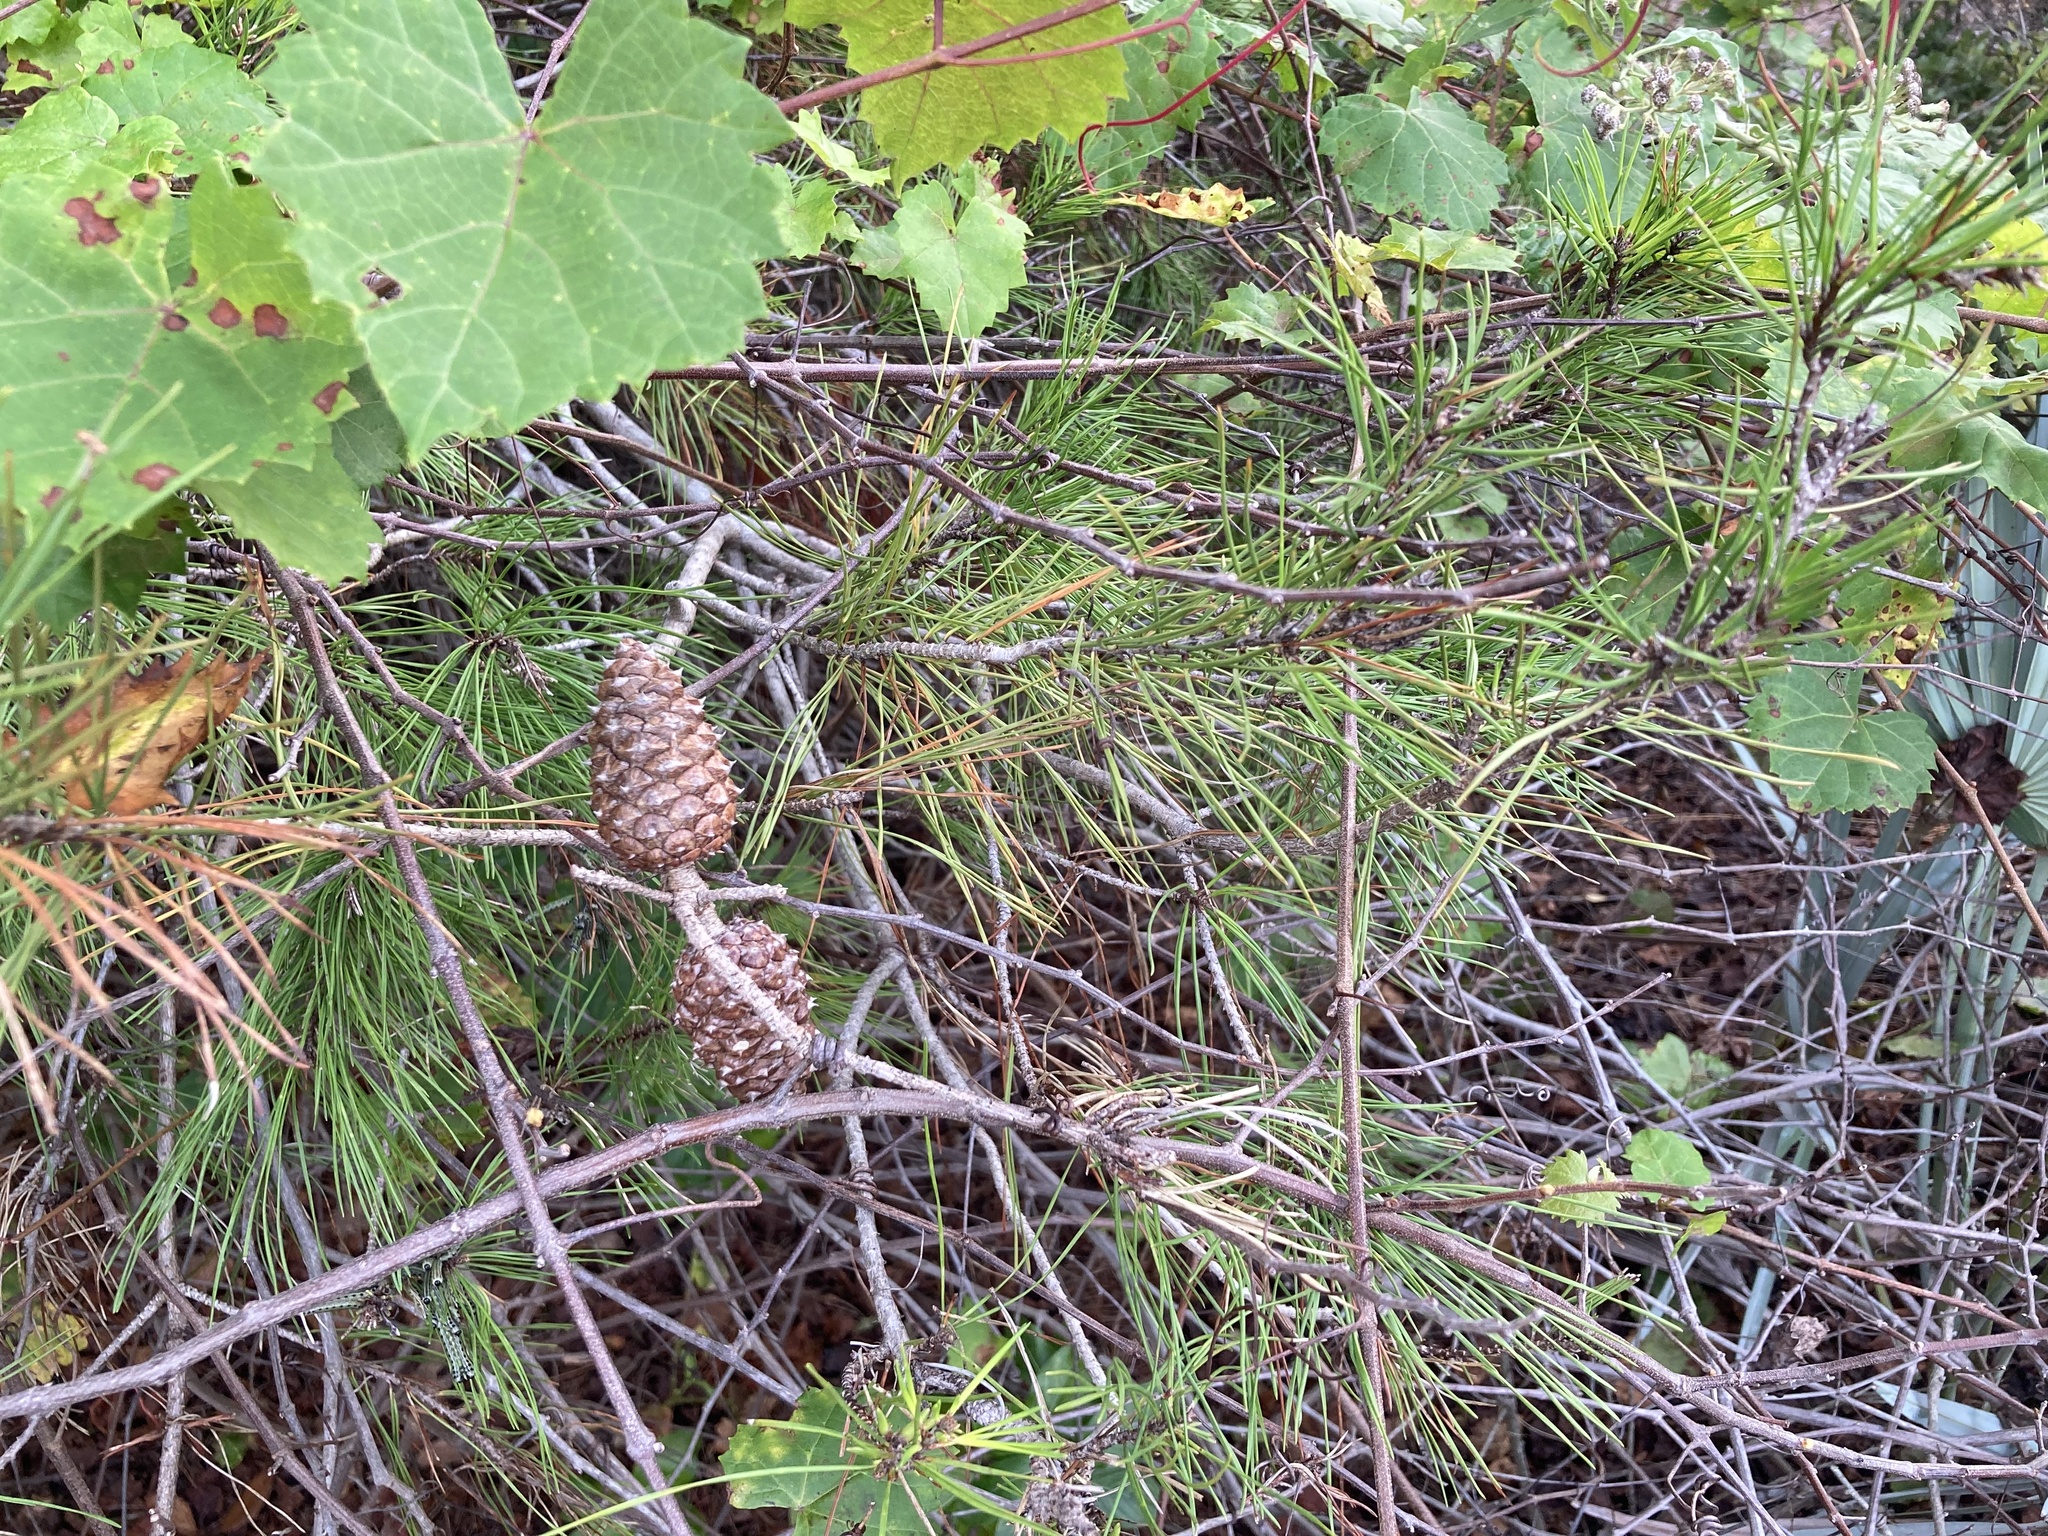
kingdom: Plantae
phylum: Tracheophyta
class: Pinopsida
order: Pinales
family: Pinaceae
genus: Pinus
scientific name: Pinus clausa
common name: Sand pine
